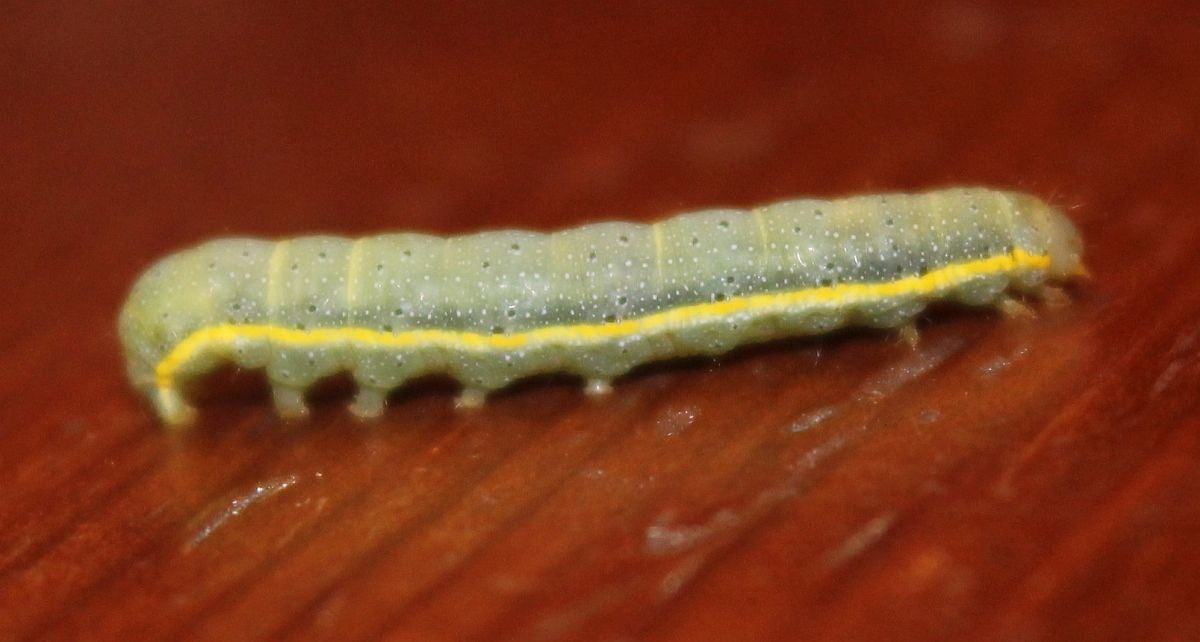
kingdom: Animalia
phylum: Arthropoda
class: Insecta
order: Lepidoptera
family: Noctuidae
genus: Lacanobia
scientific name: Lacanobia oleracea
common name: Bright-line brown-eye
